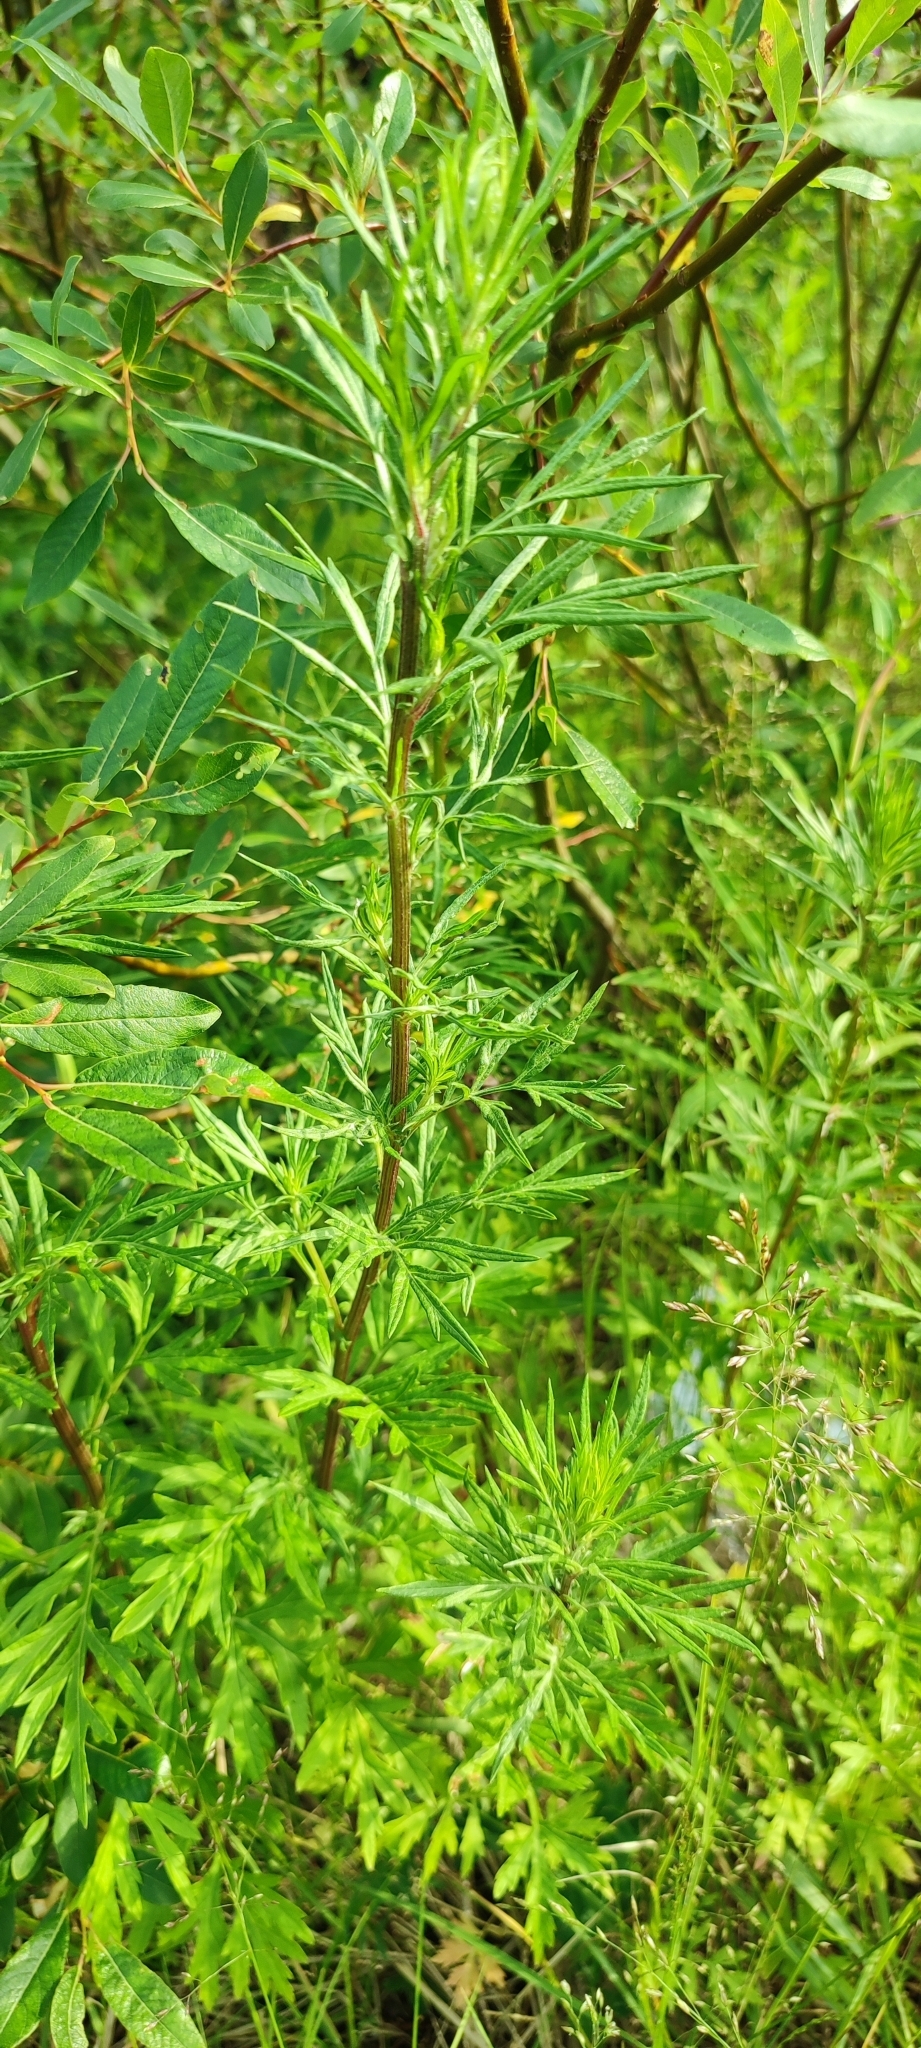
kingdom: Plantae
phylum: Tracheophyta
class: Magnoliopsida
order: Asterales
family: Asteraceae
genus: Artemisia
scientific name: Artemisia vulgaris
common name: Mugwort
